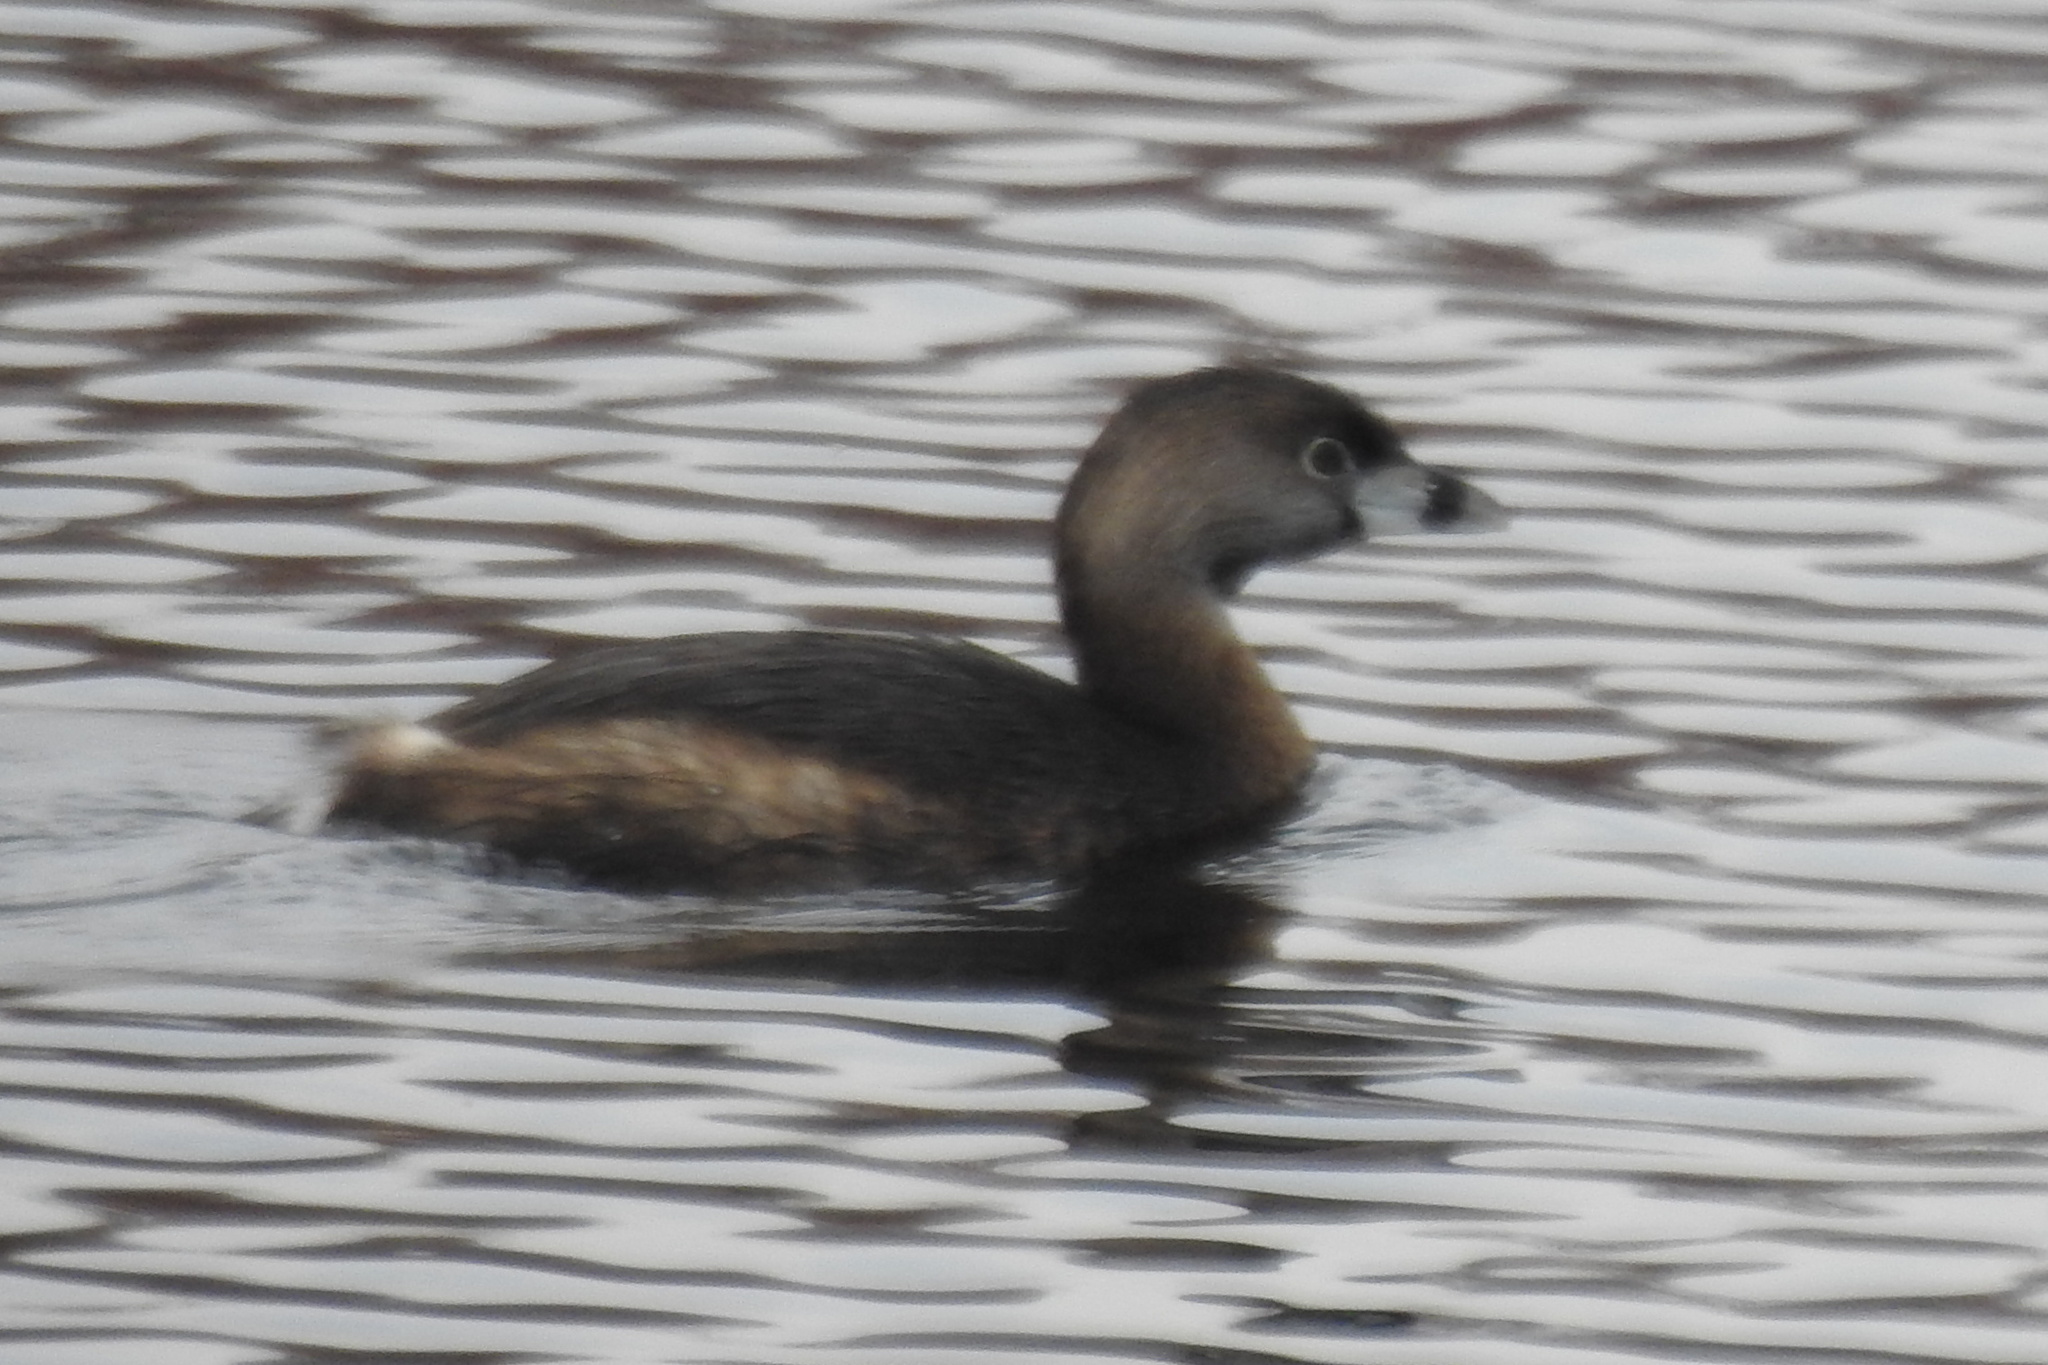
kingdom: Animalia
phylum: Chordata
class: Aves
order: Podicipediformes
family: Podicipedidae
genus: Podilymbus
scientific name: Podilymbus podiceps
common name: Pied-billed grebe
